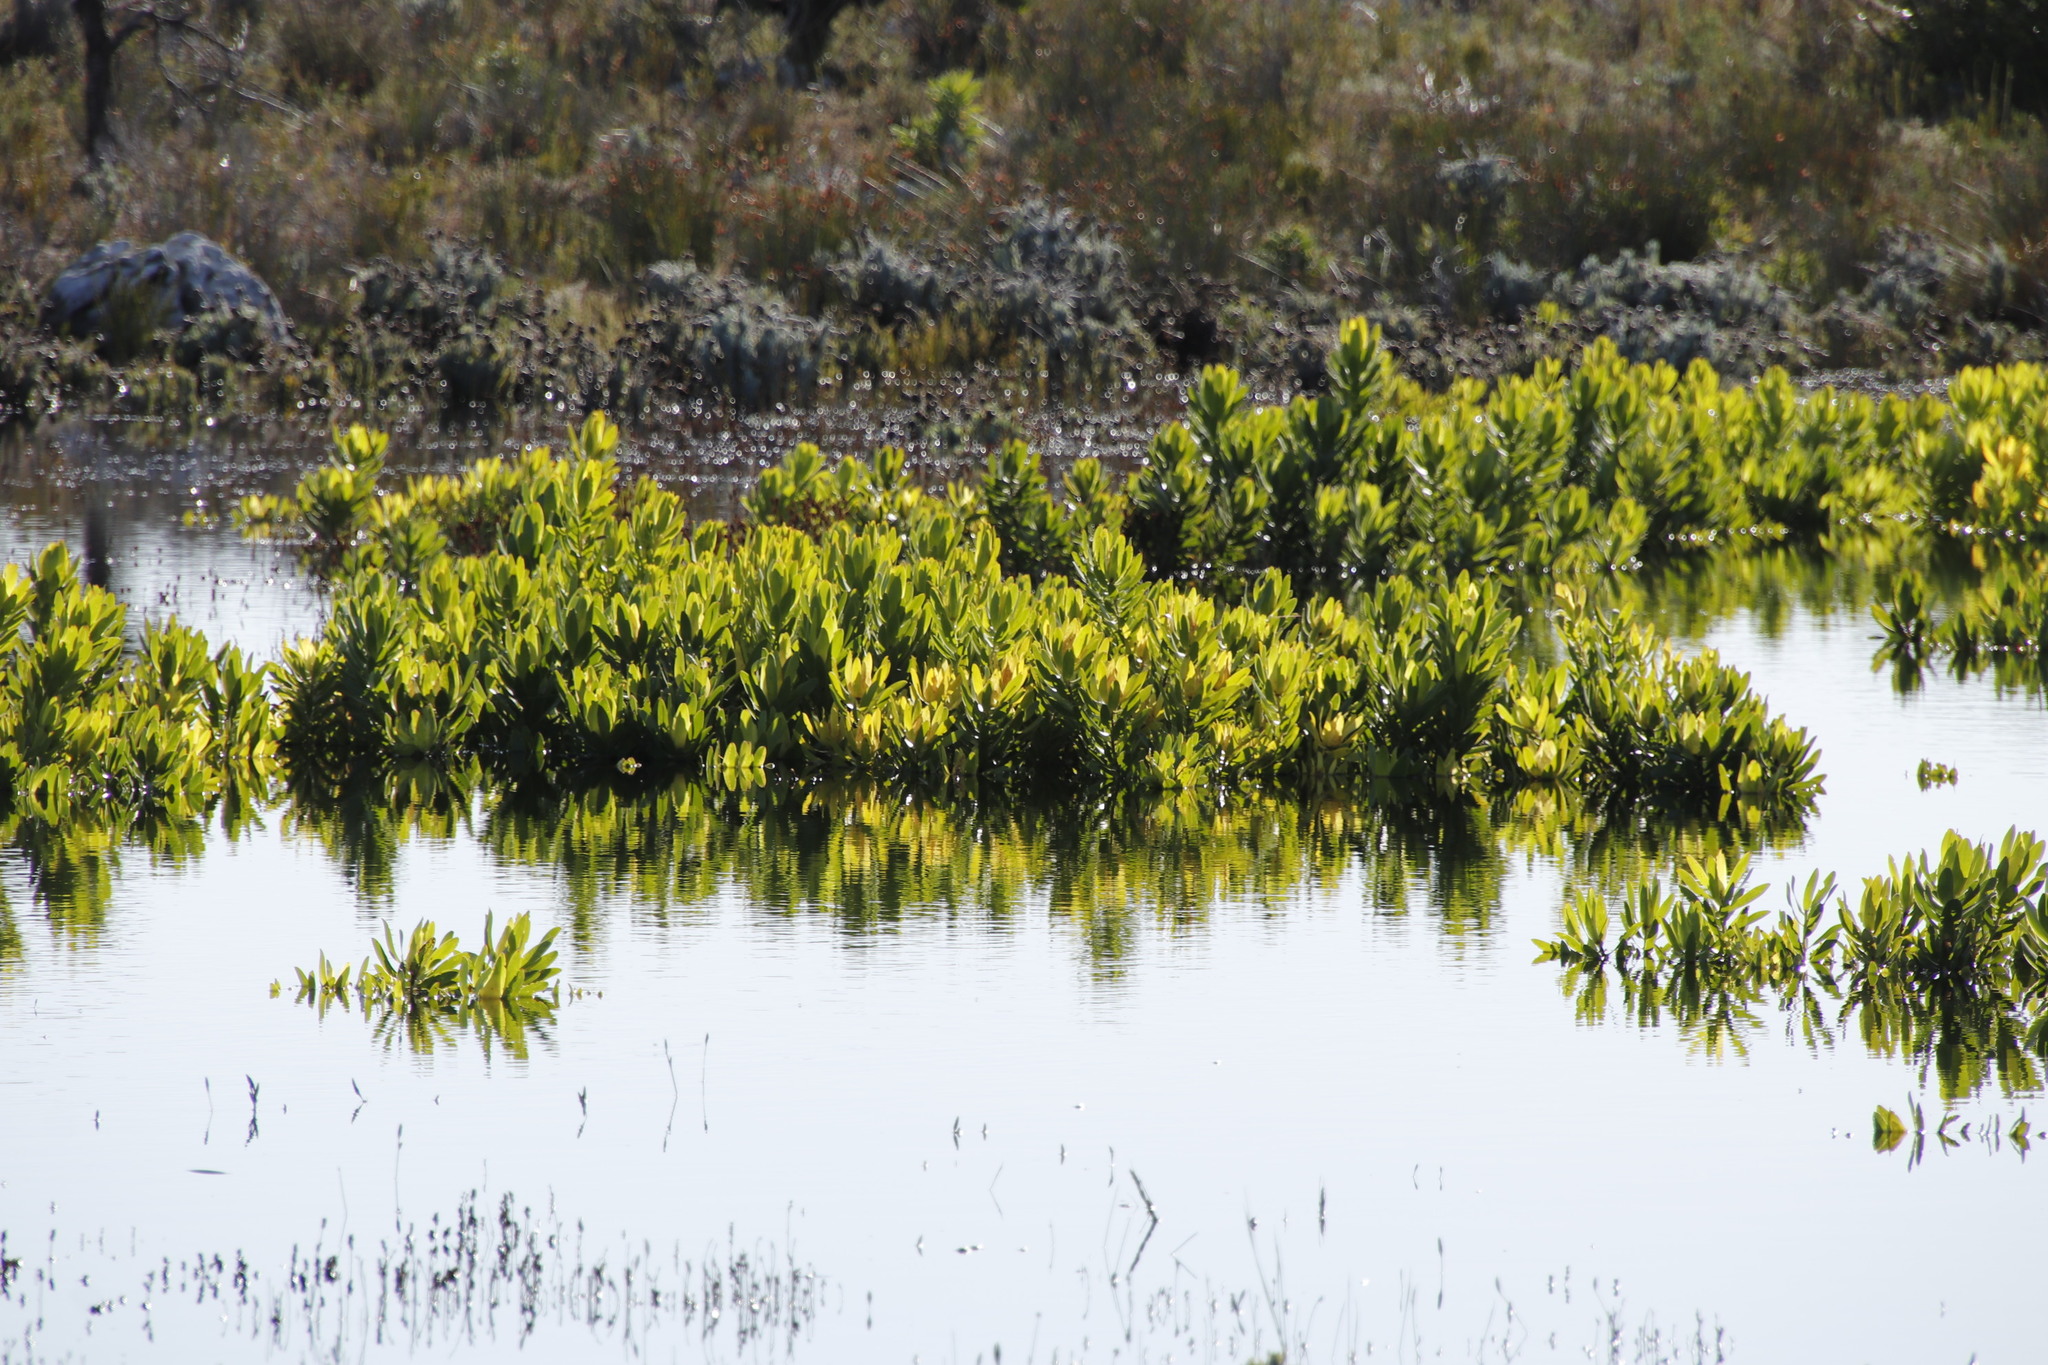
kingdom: Plantae
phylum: Tracheophyta
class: Magnoliopsida
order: Proteales
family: Proteaceae
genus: Leucadendron
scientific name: Leucadendron laureolum
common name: Golden sunshinebush
